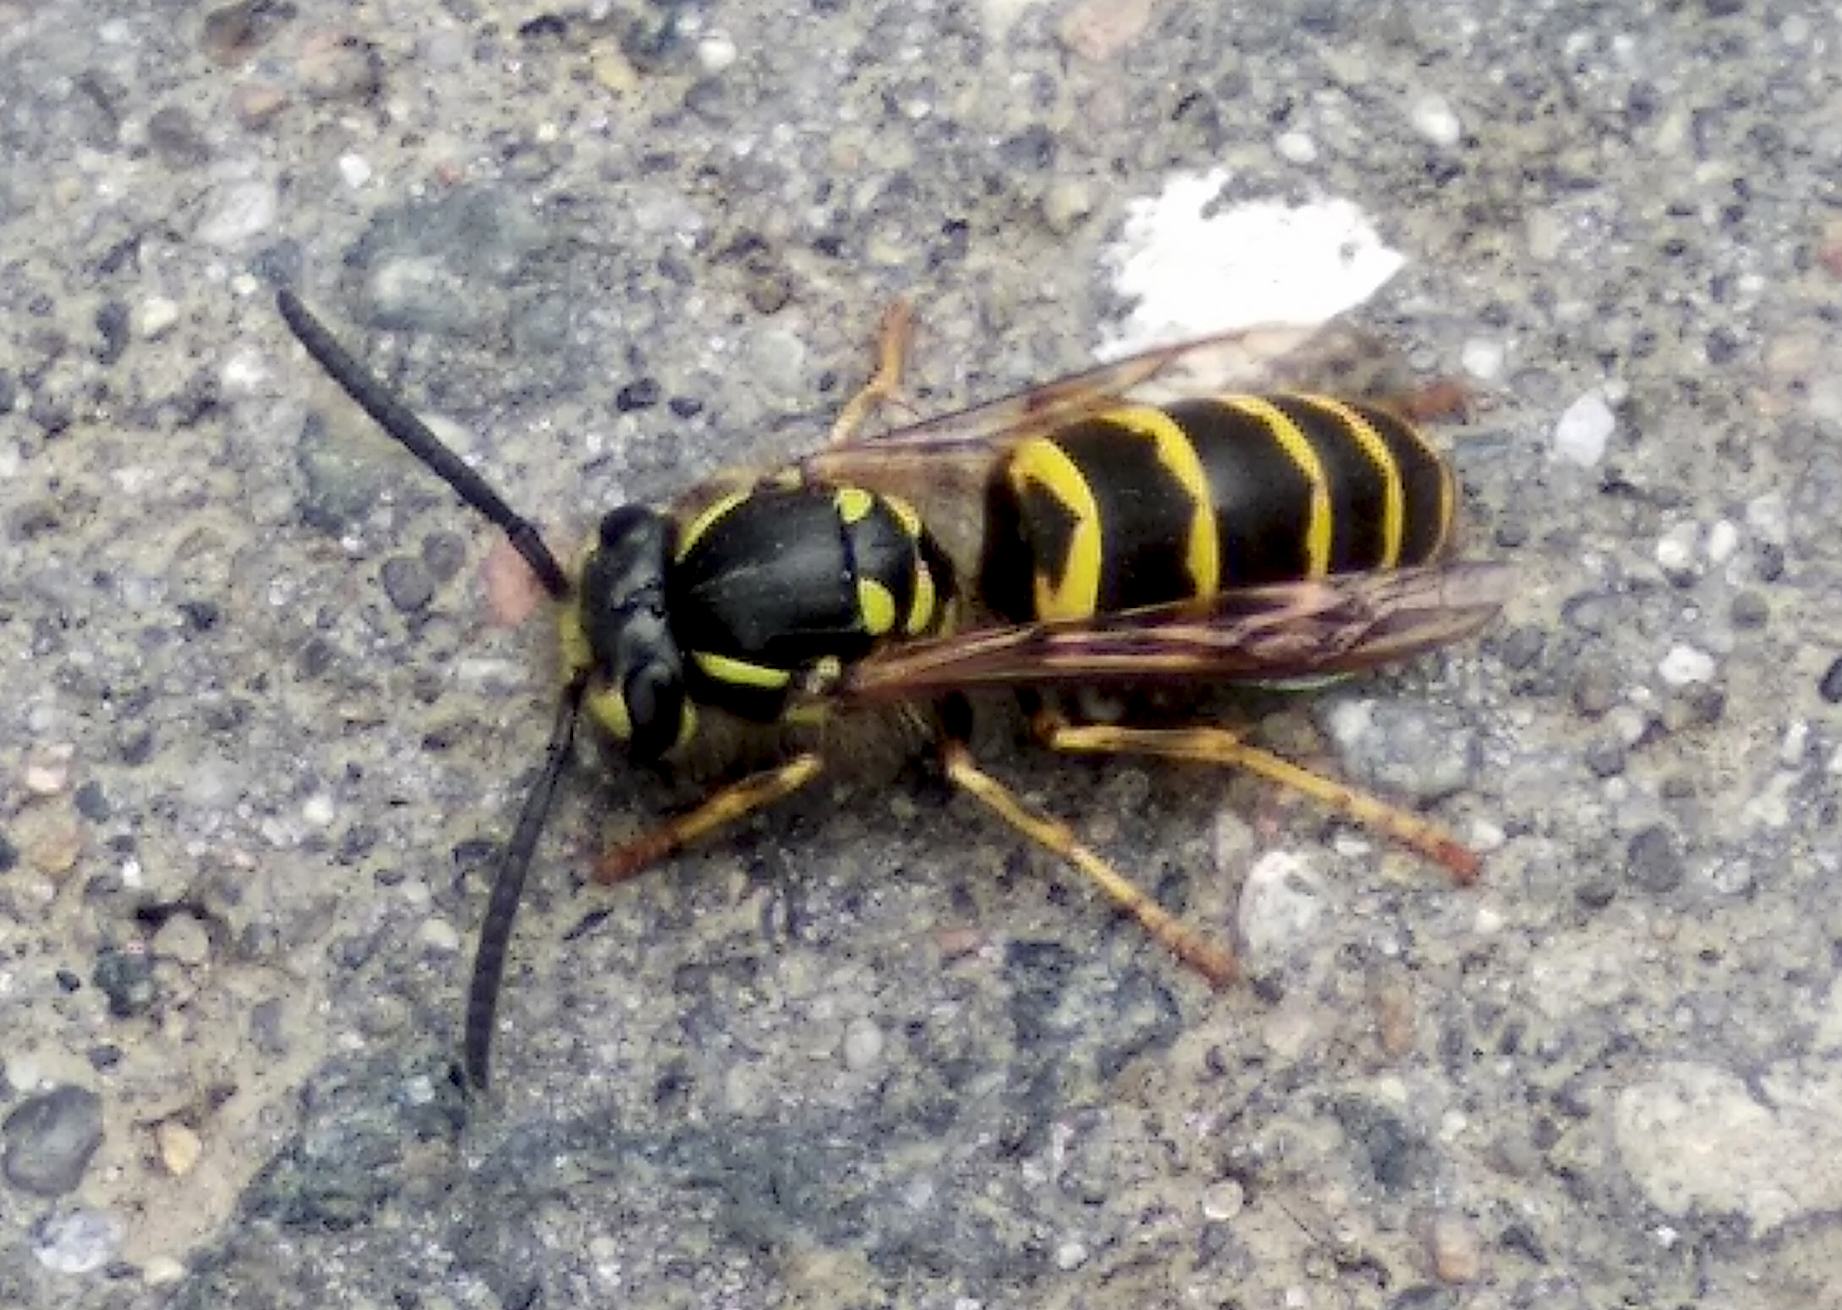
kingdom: Animalia
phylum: Arthropoda
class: Insecta
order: Hymenoptera
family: Vespidae
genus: Vespula
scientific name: Vespula vulgaris
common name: Common wasp
